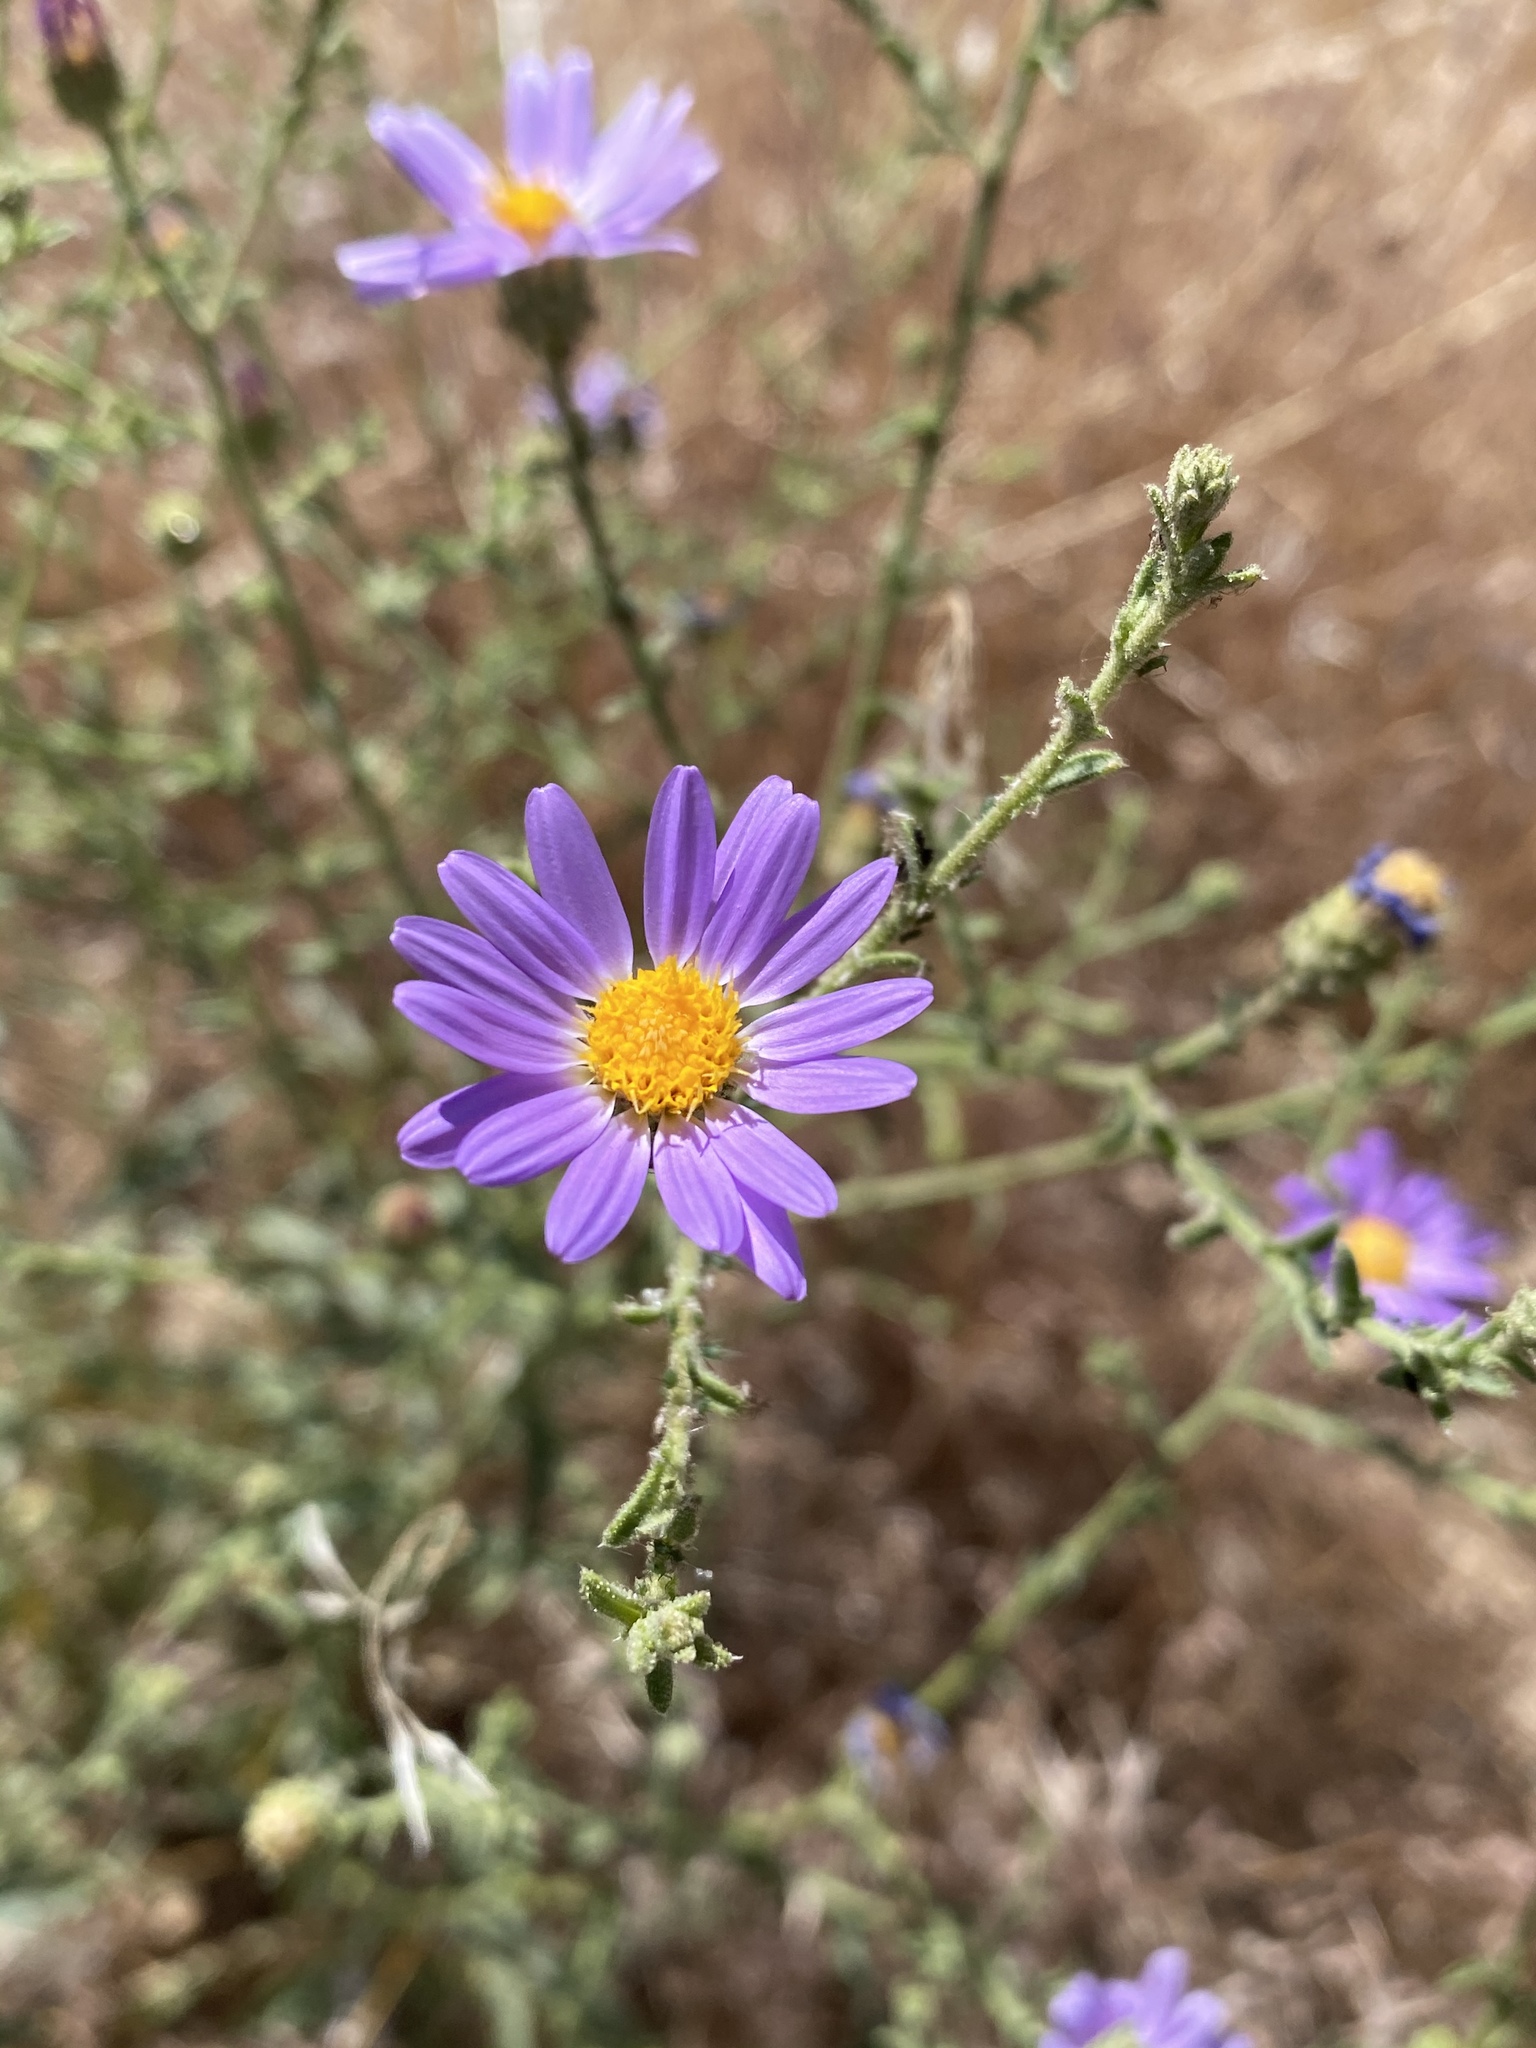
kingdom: Plantae
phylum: Tracheophyta
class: Magnoliopsida
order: Asterales
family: Asteraceae
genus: Dieteria
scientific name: Dieteria canescens
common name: Hoary-aster
